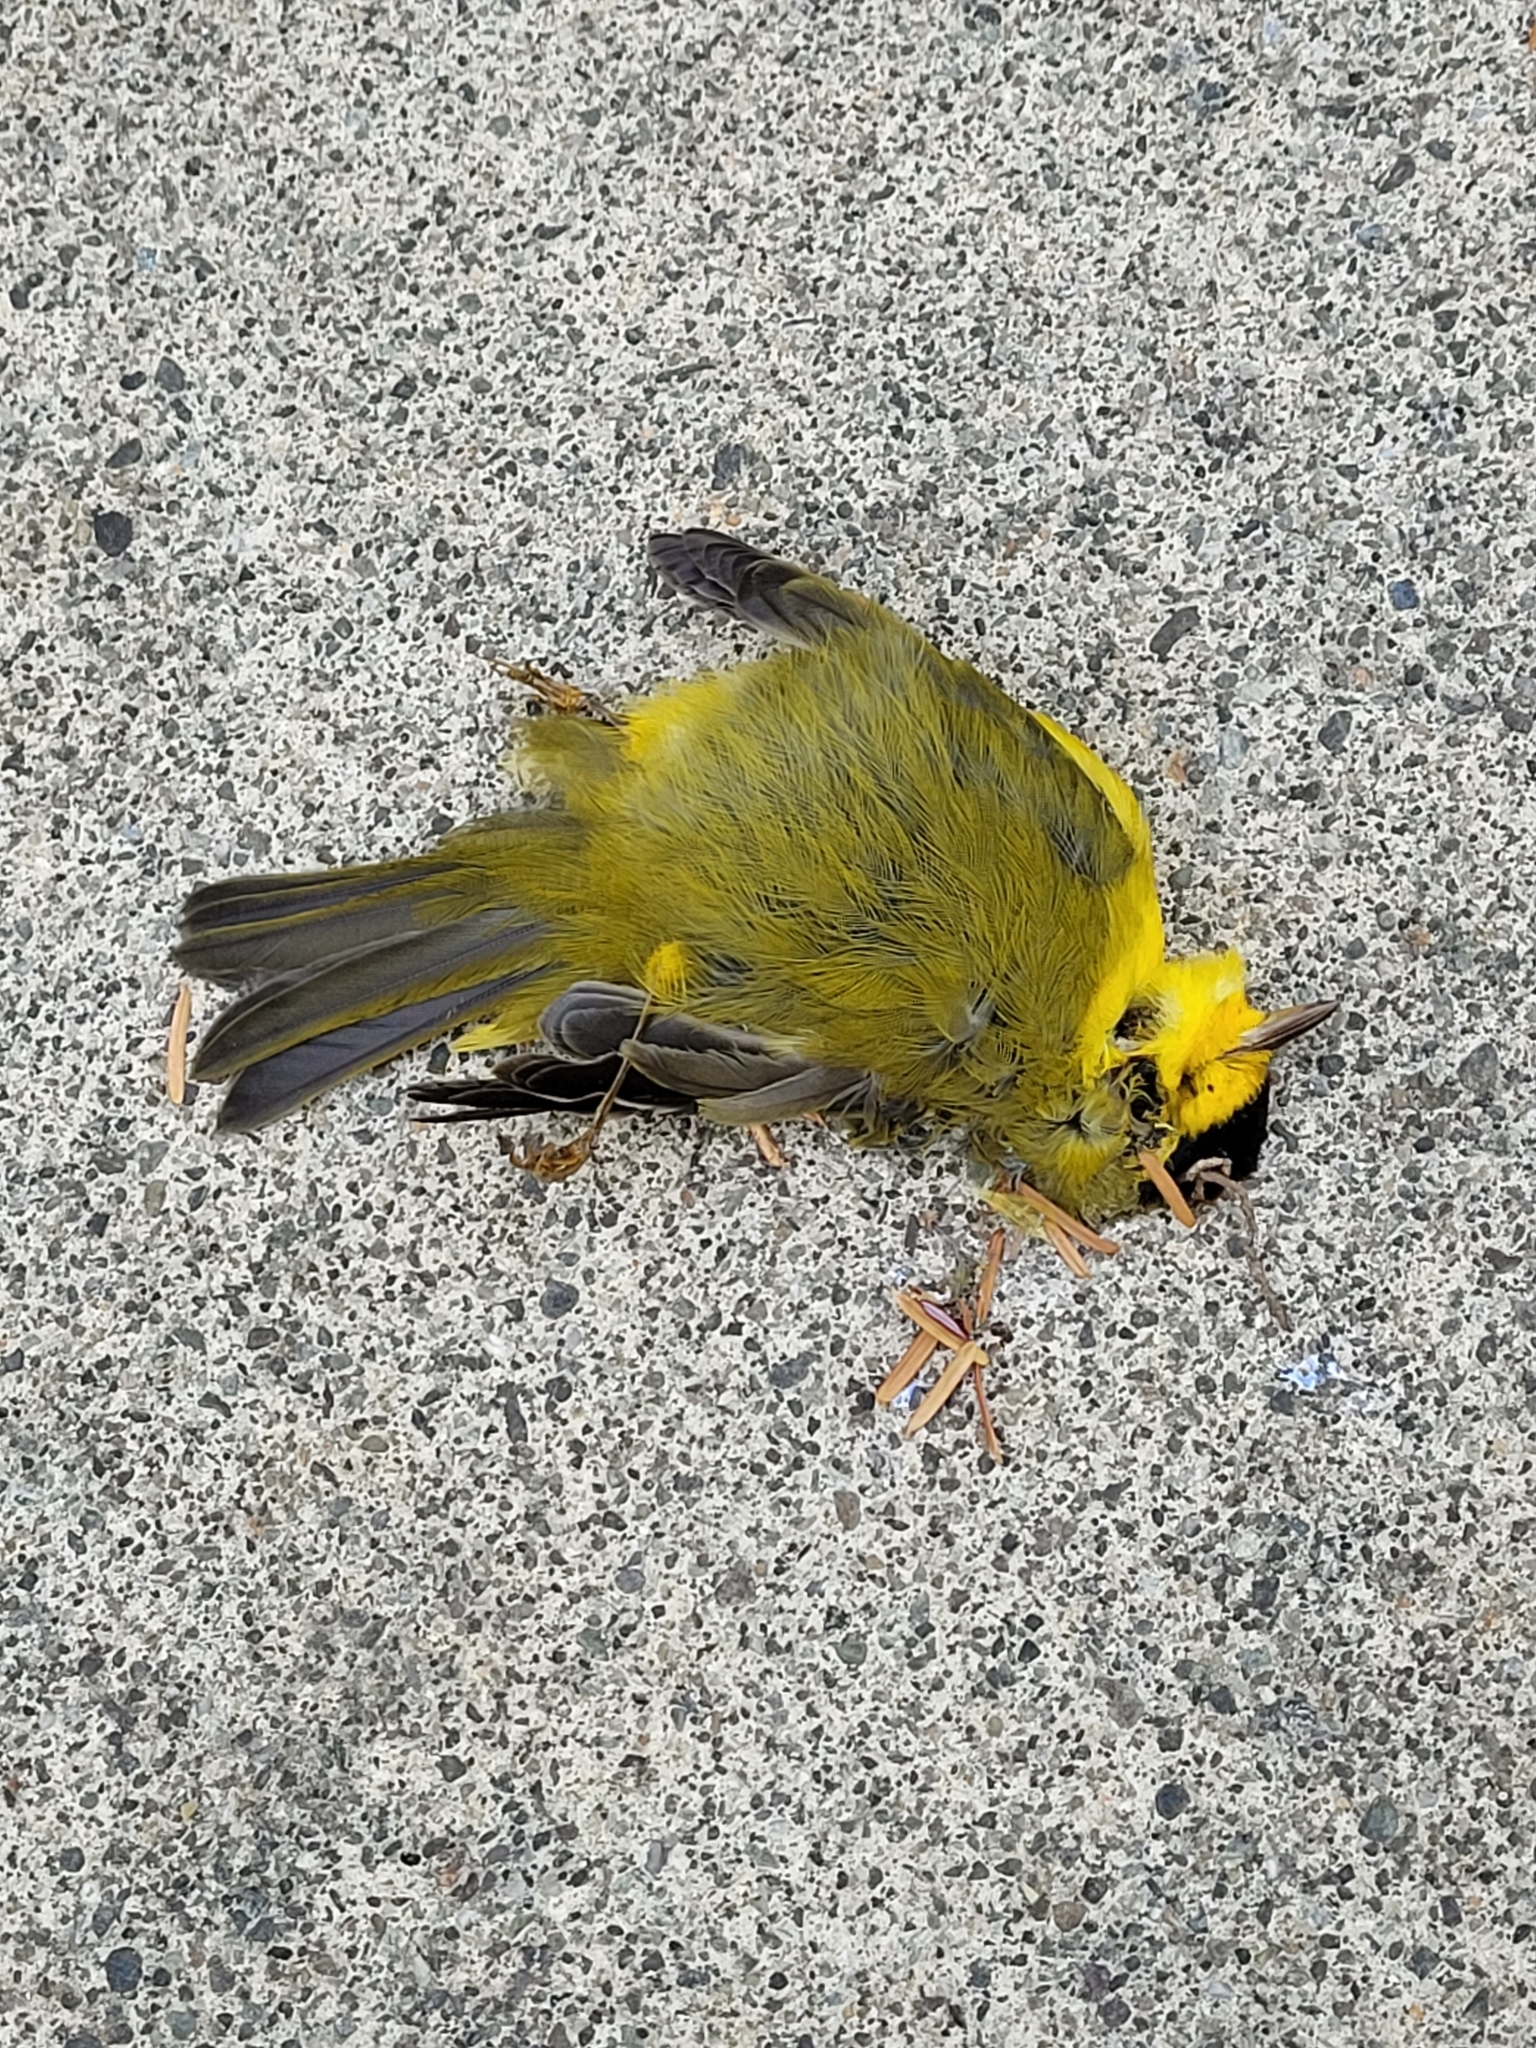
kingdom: Animalia
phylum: Chordata
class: Aves
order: Passeriformes
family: Parulidae
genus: Cardellina
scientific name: Cardellina pusilla
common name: Wilson's warbler
